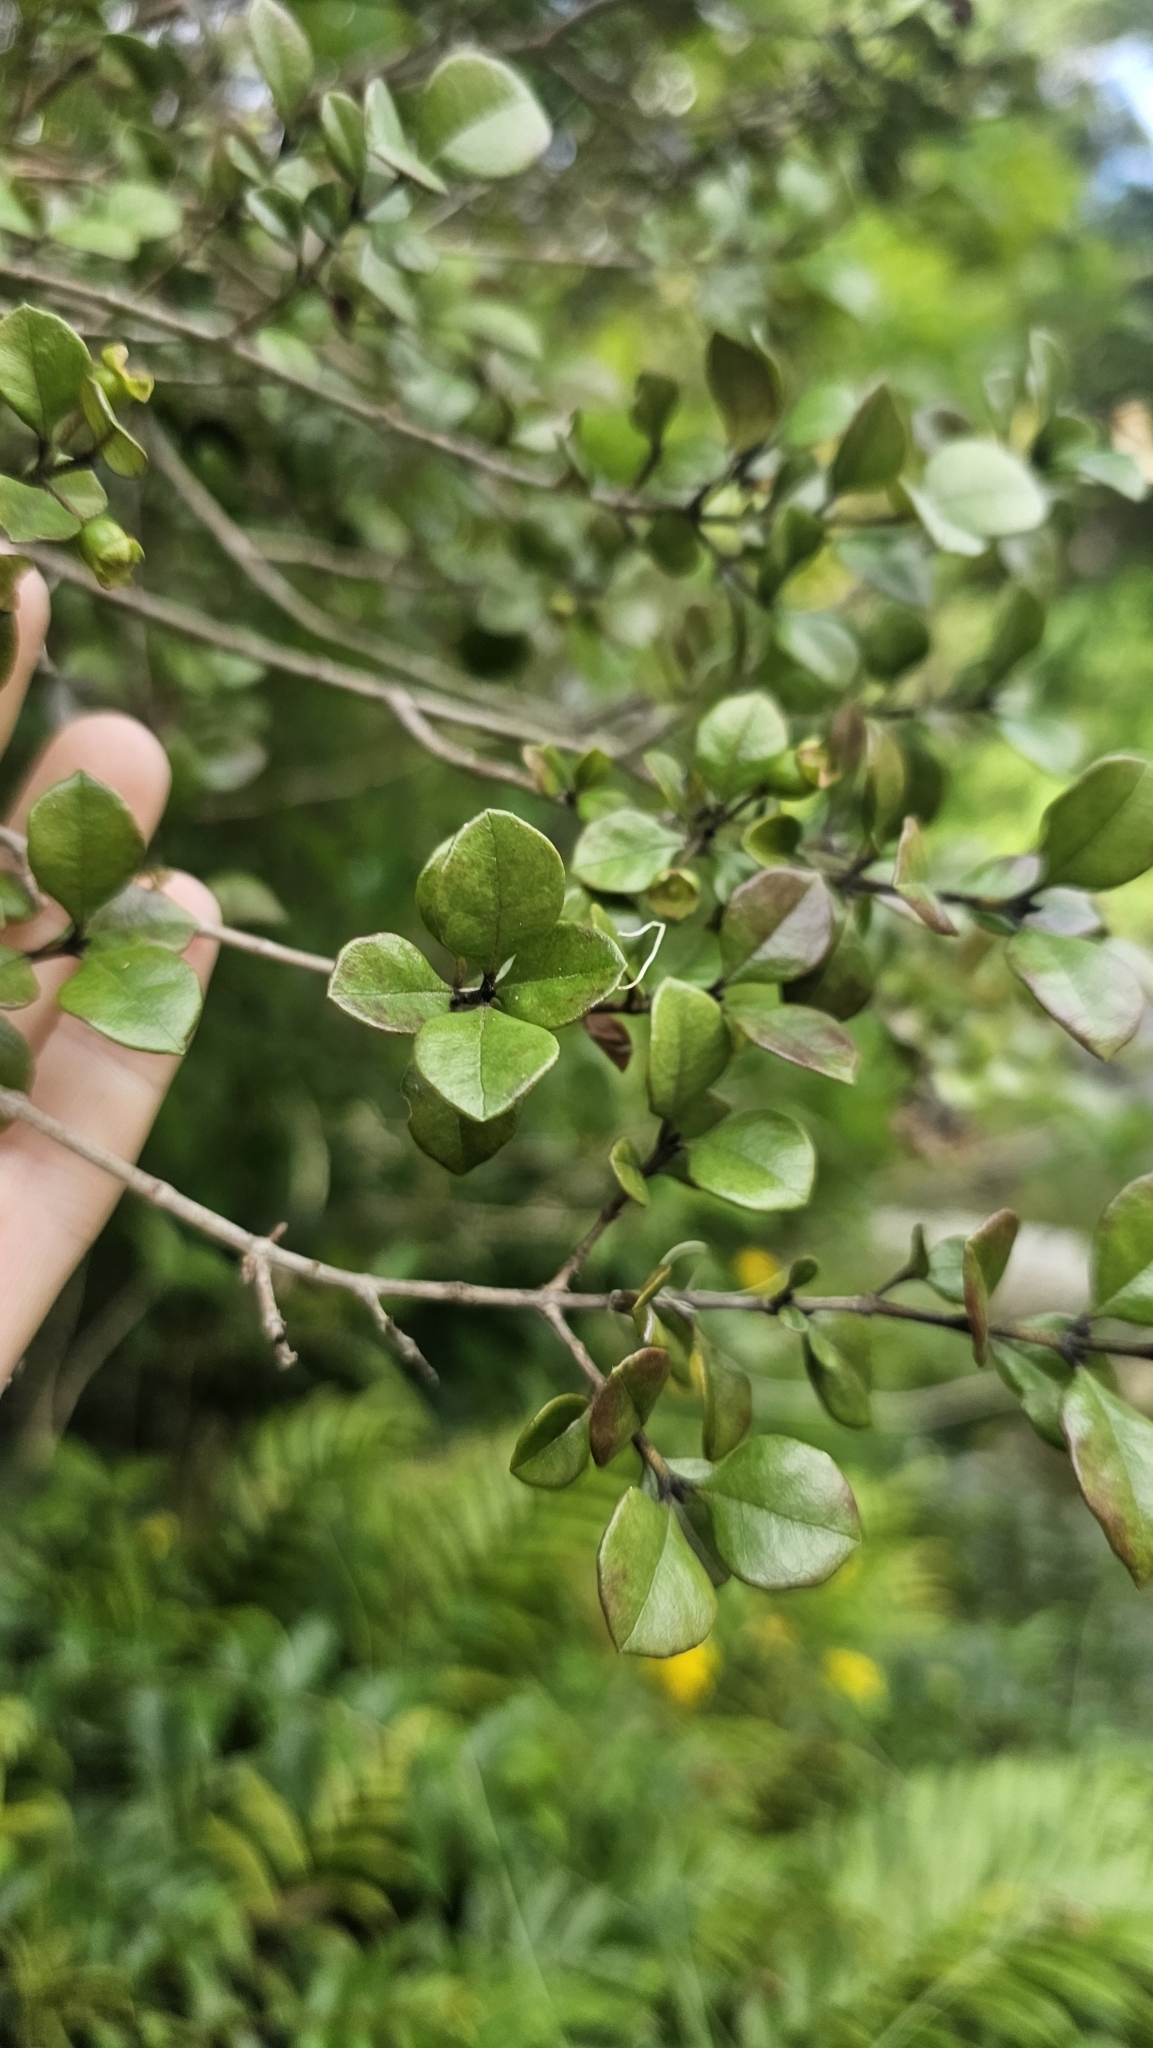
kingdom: Plantae
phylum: Tracheophyta
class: Magnoliopsida
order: Myrtales
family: Myrtaceae
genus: Lophomyrtus
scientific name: Lophomyrtus ralphii
